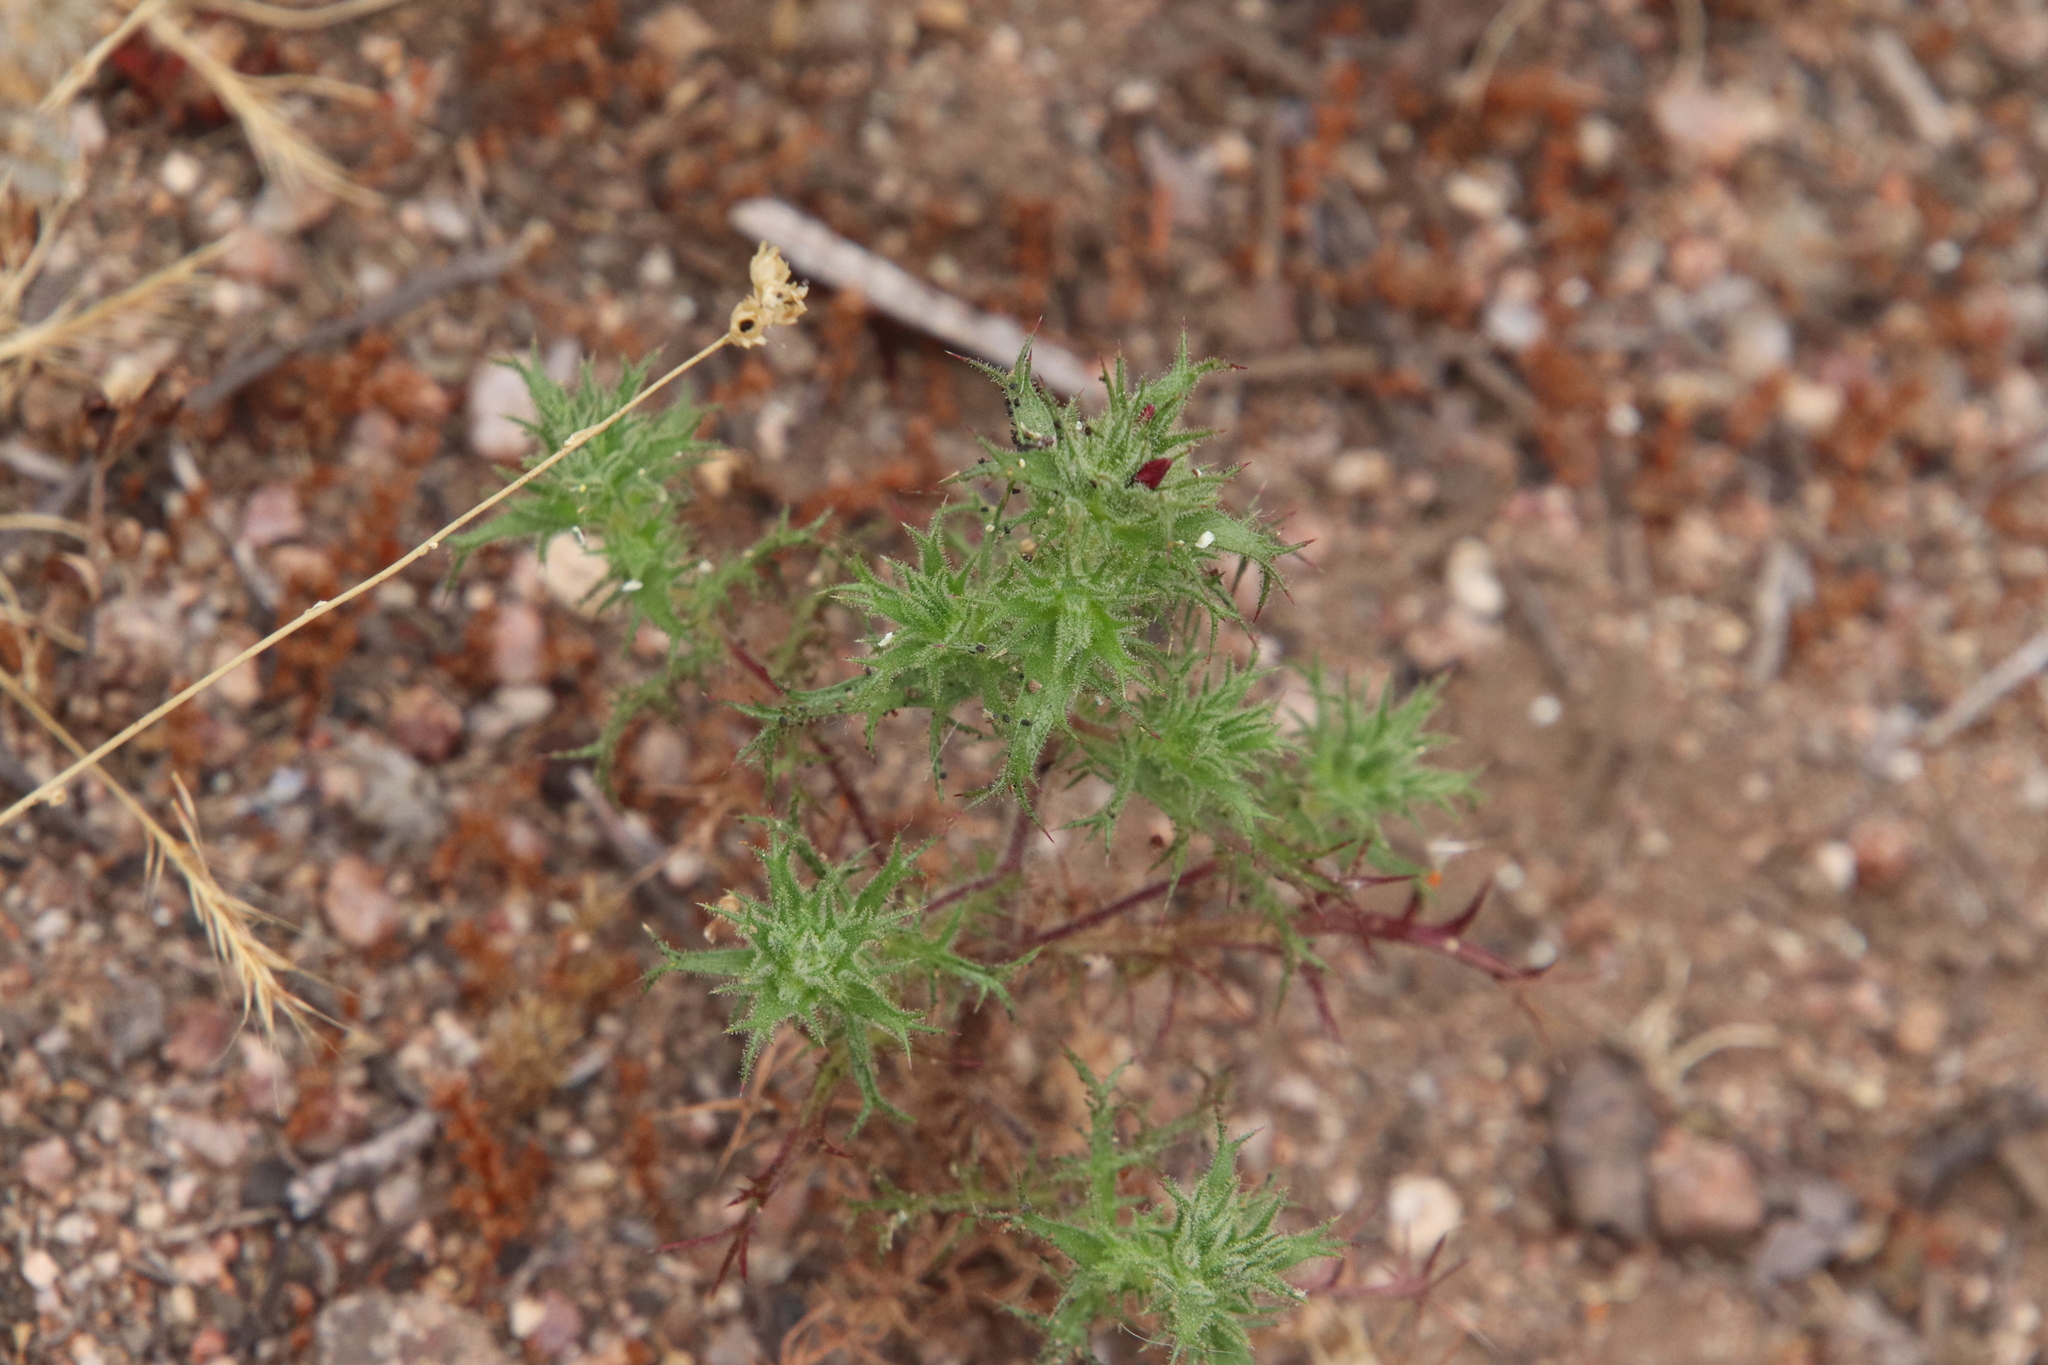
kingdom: Plantae
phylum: Tracheophyta
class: Magnoliopsida
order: Ericales
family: Polemoniaceae
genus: Navarretia
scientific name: Navarretia hamata
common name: Hooked navarretia
